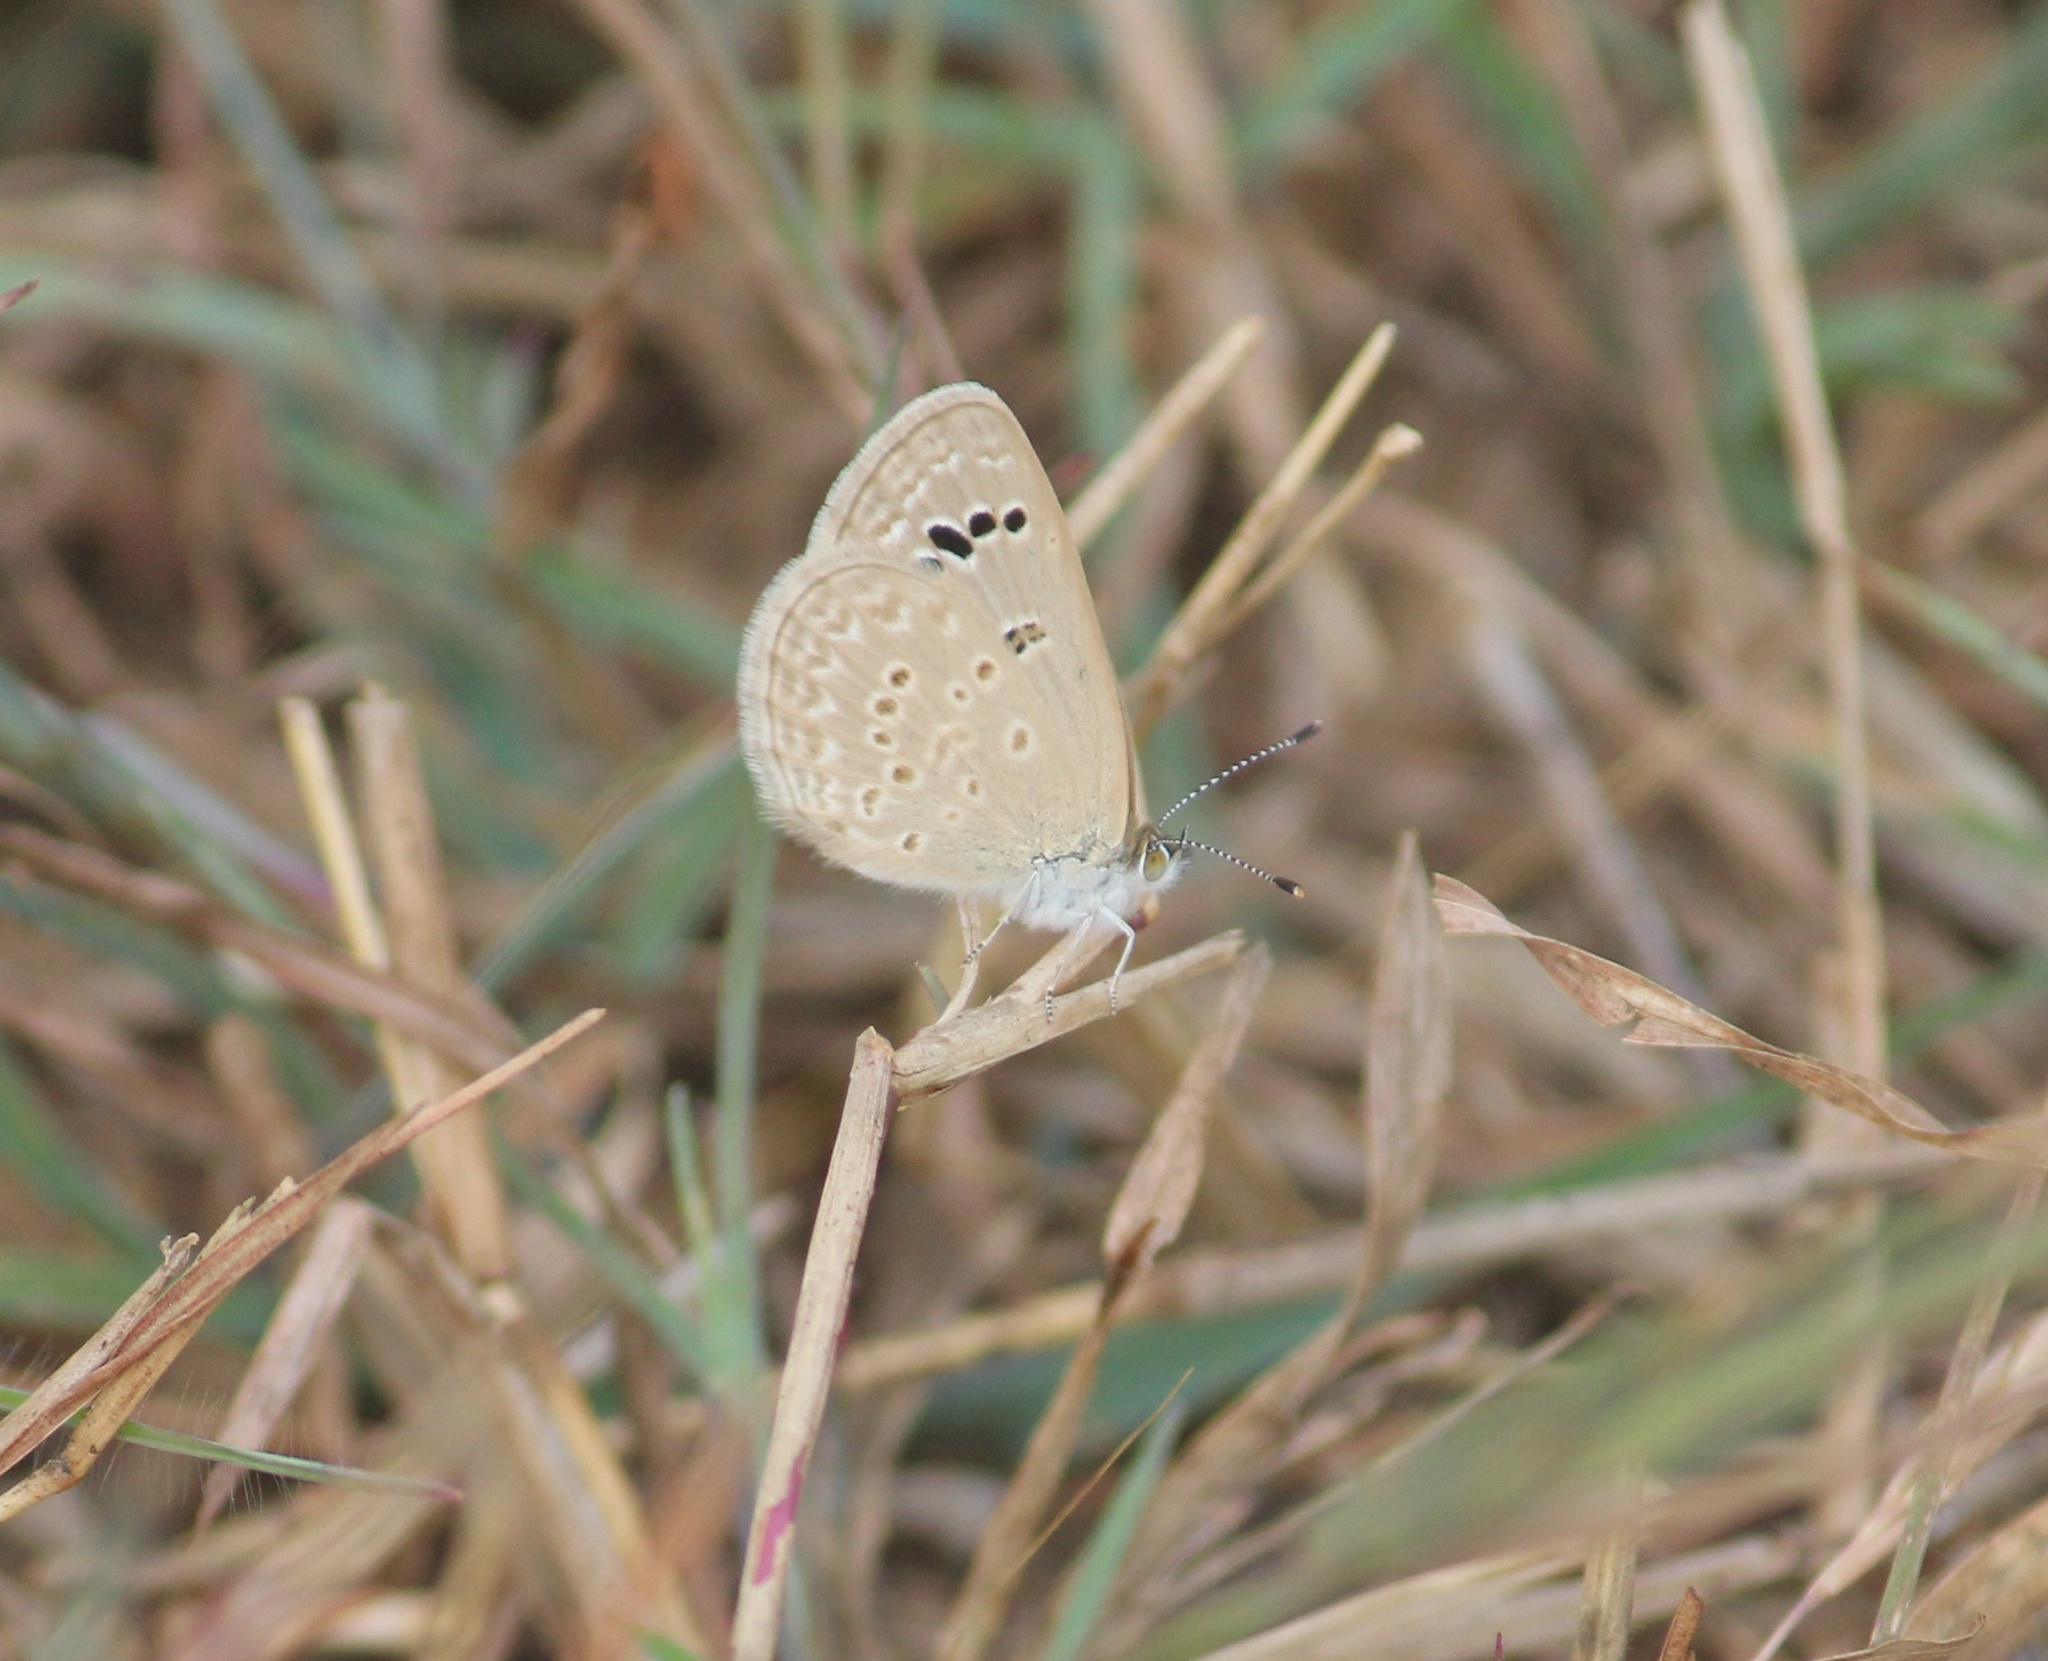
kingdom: Animalia
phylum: Arthropoda
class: Insecta
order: Lepidoptera
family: Lycaenidae
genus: Zizina
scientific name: Zizina otis
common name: Lesser grass blue
